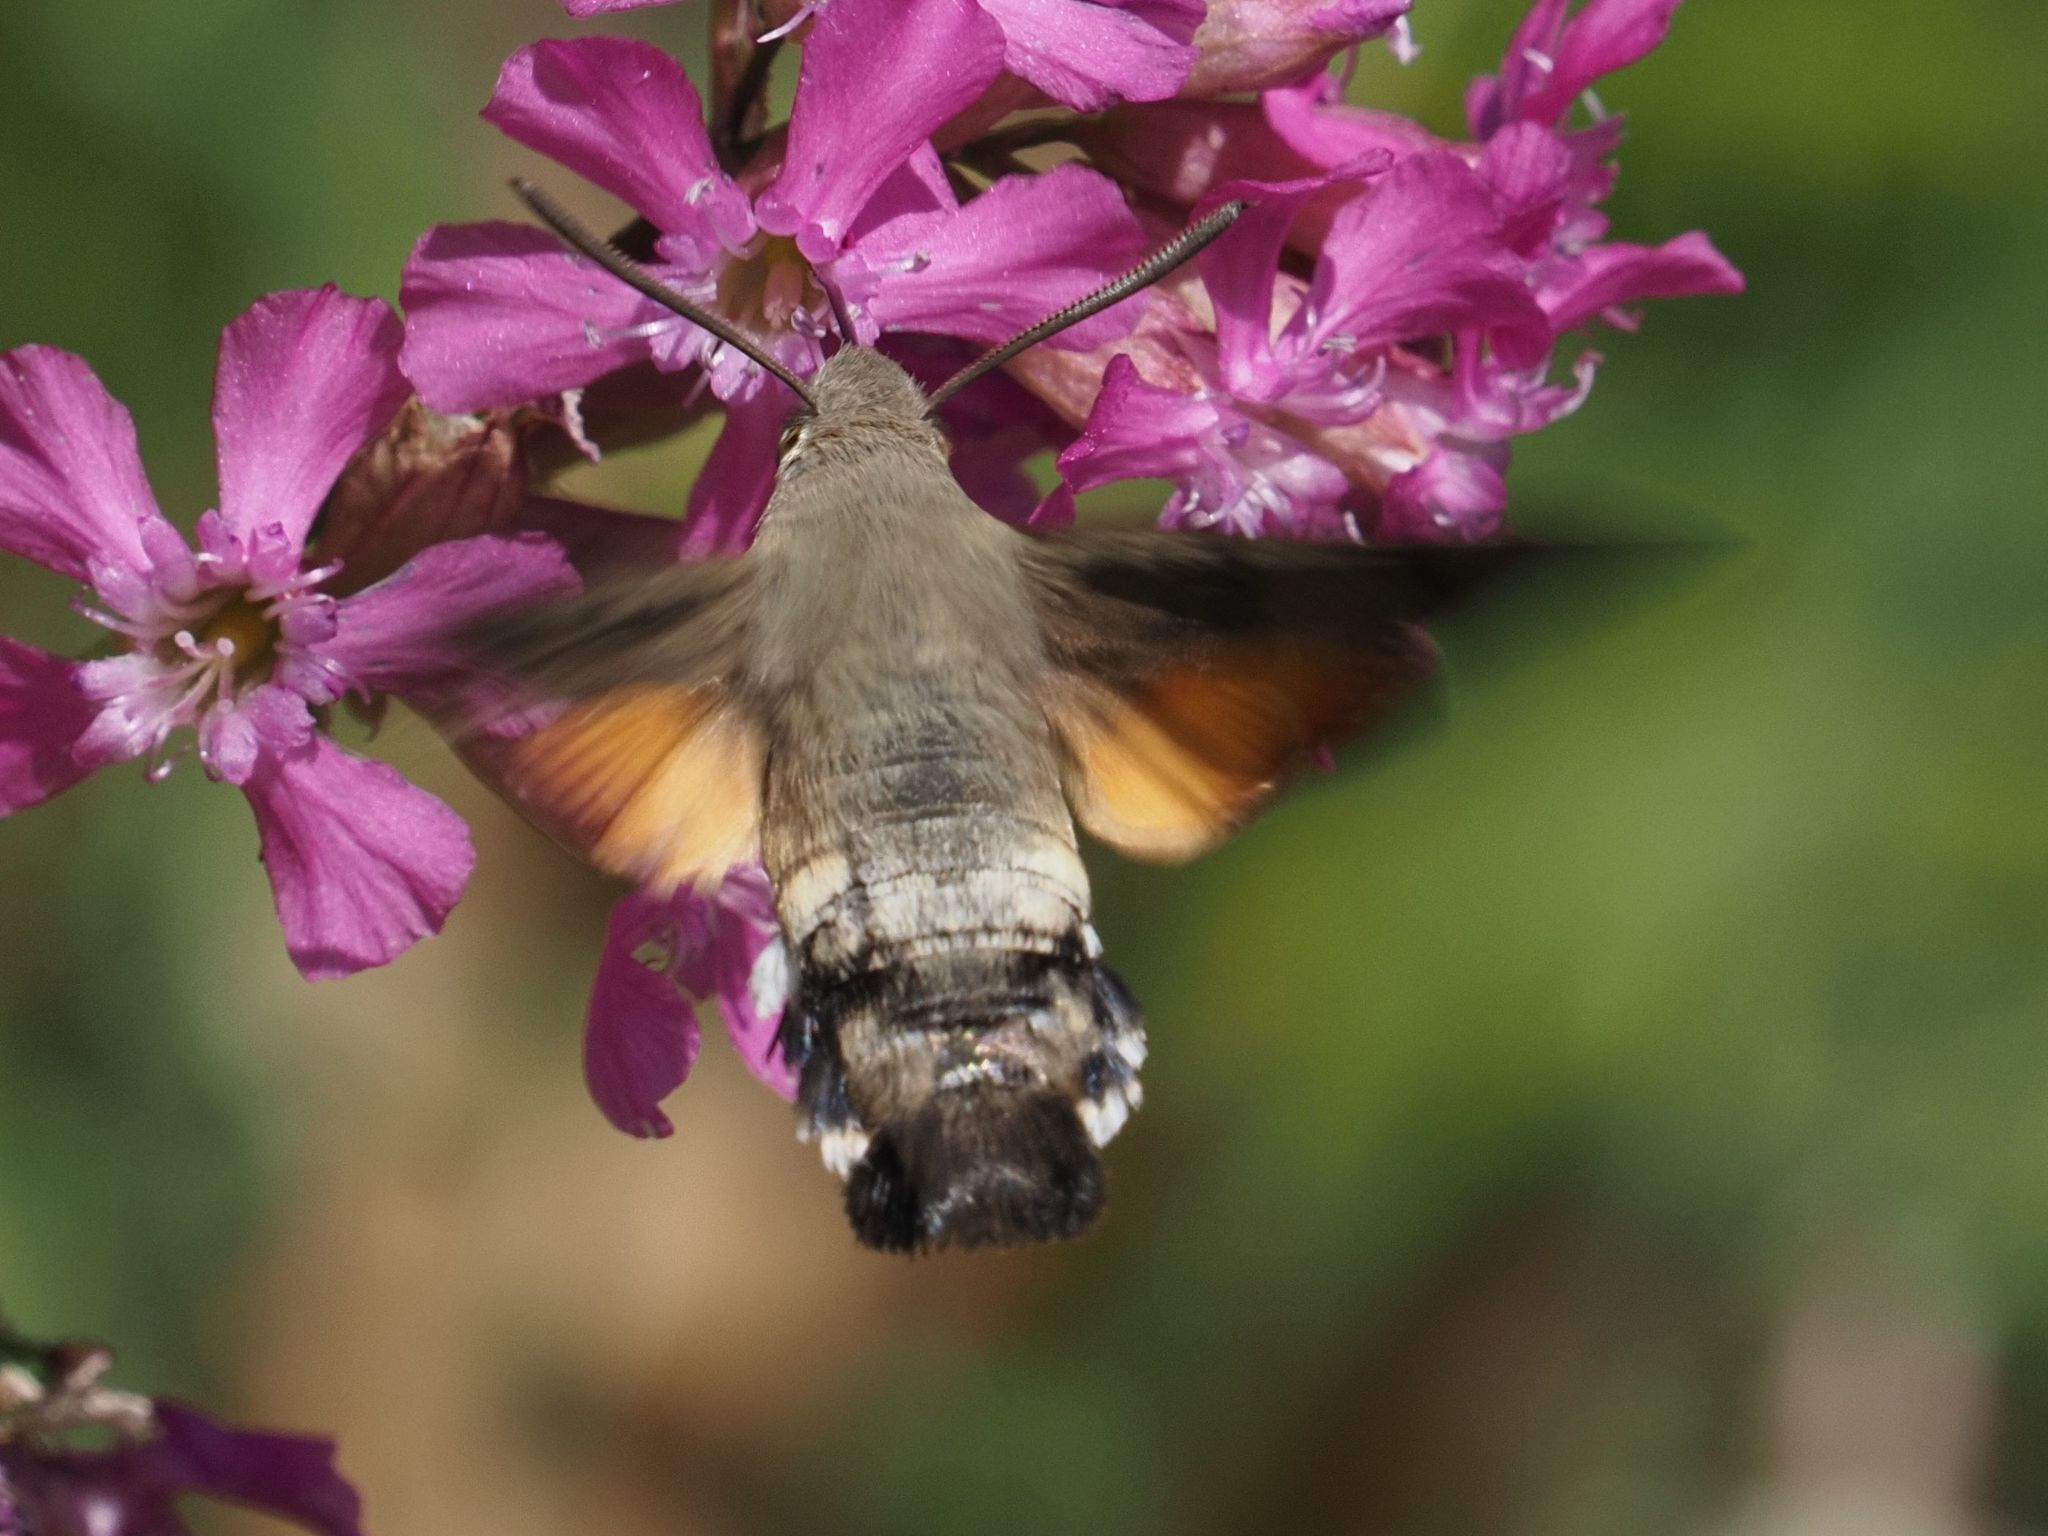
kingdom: Animalia
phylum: Arthropoda
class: Insecta
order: Lepidoptera
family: Sphingidae
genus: Macroglossum
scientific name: Macroglossum stellatarum
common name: Humming-bird hawk-moth
